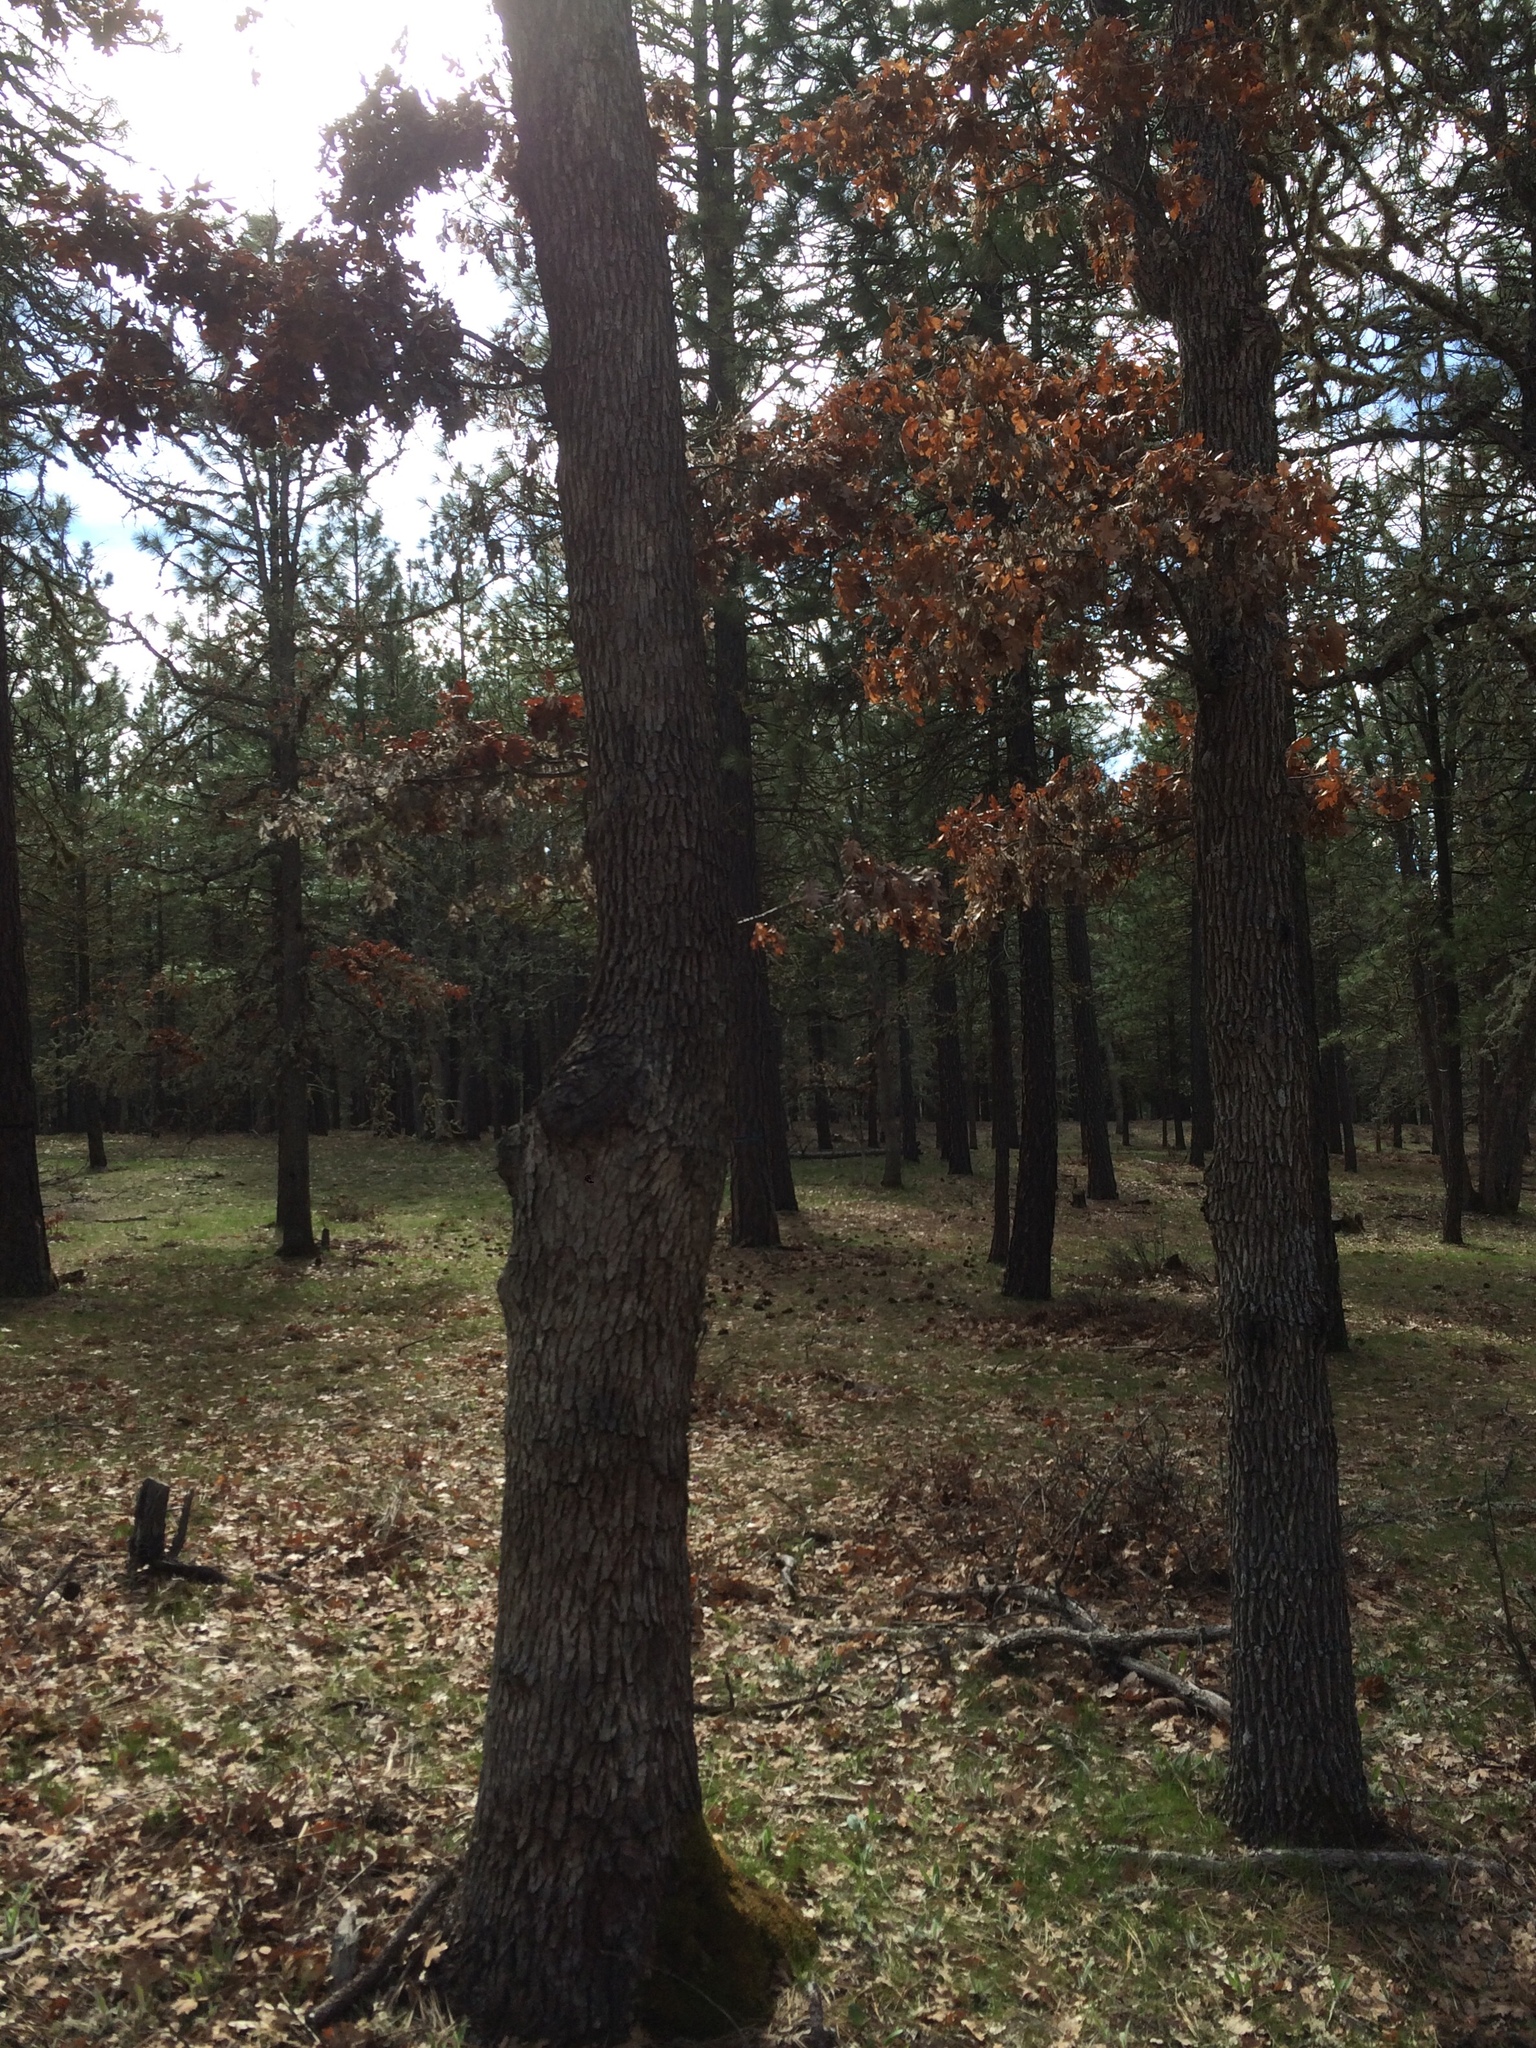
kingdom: Plantae
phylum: Tracheophyta
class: Magnoliopsida
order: Fagales
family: Fagaceae
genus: Quercus
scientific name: Quercus garryana
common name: Garry oak
